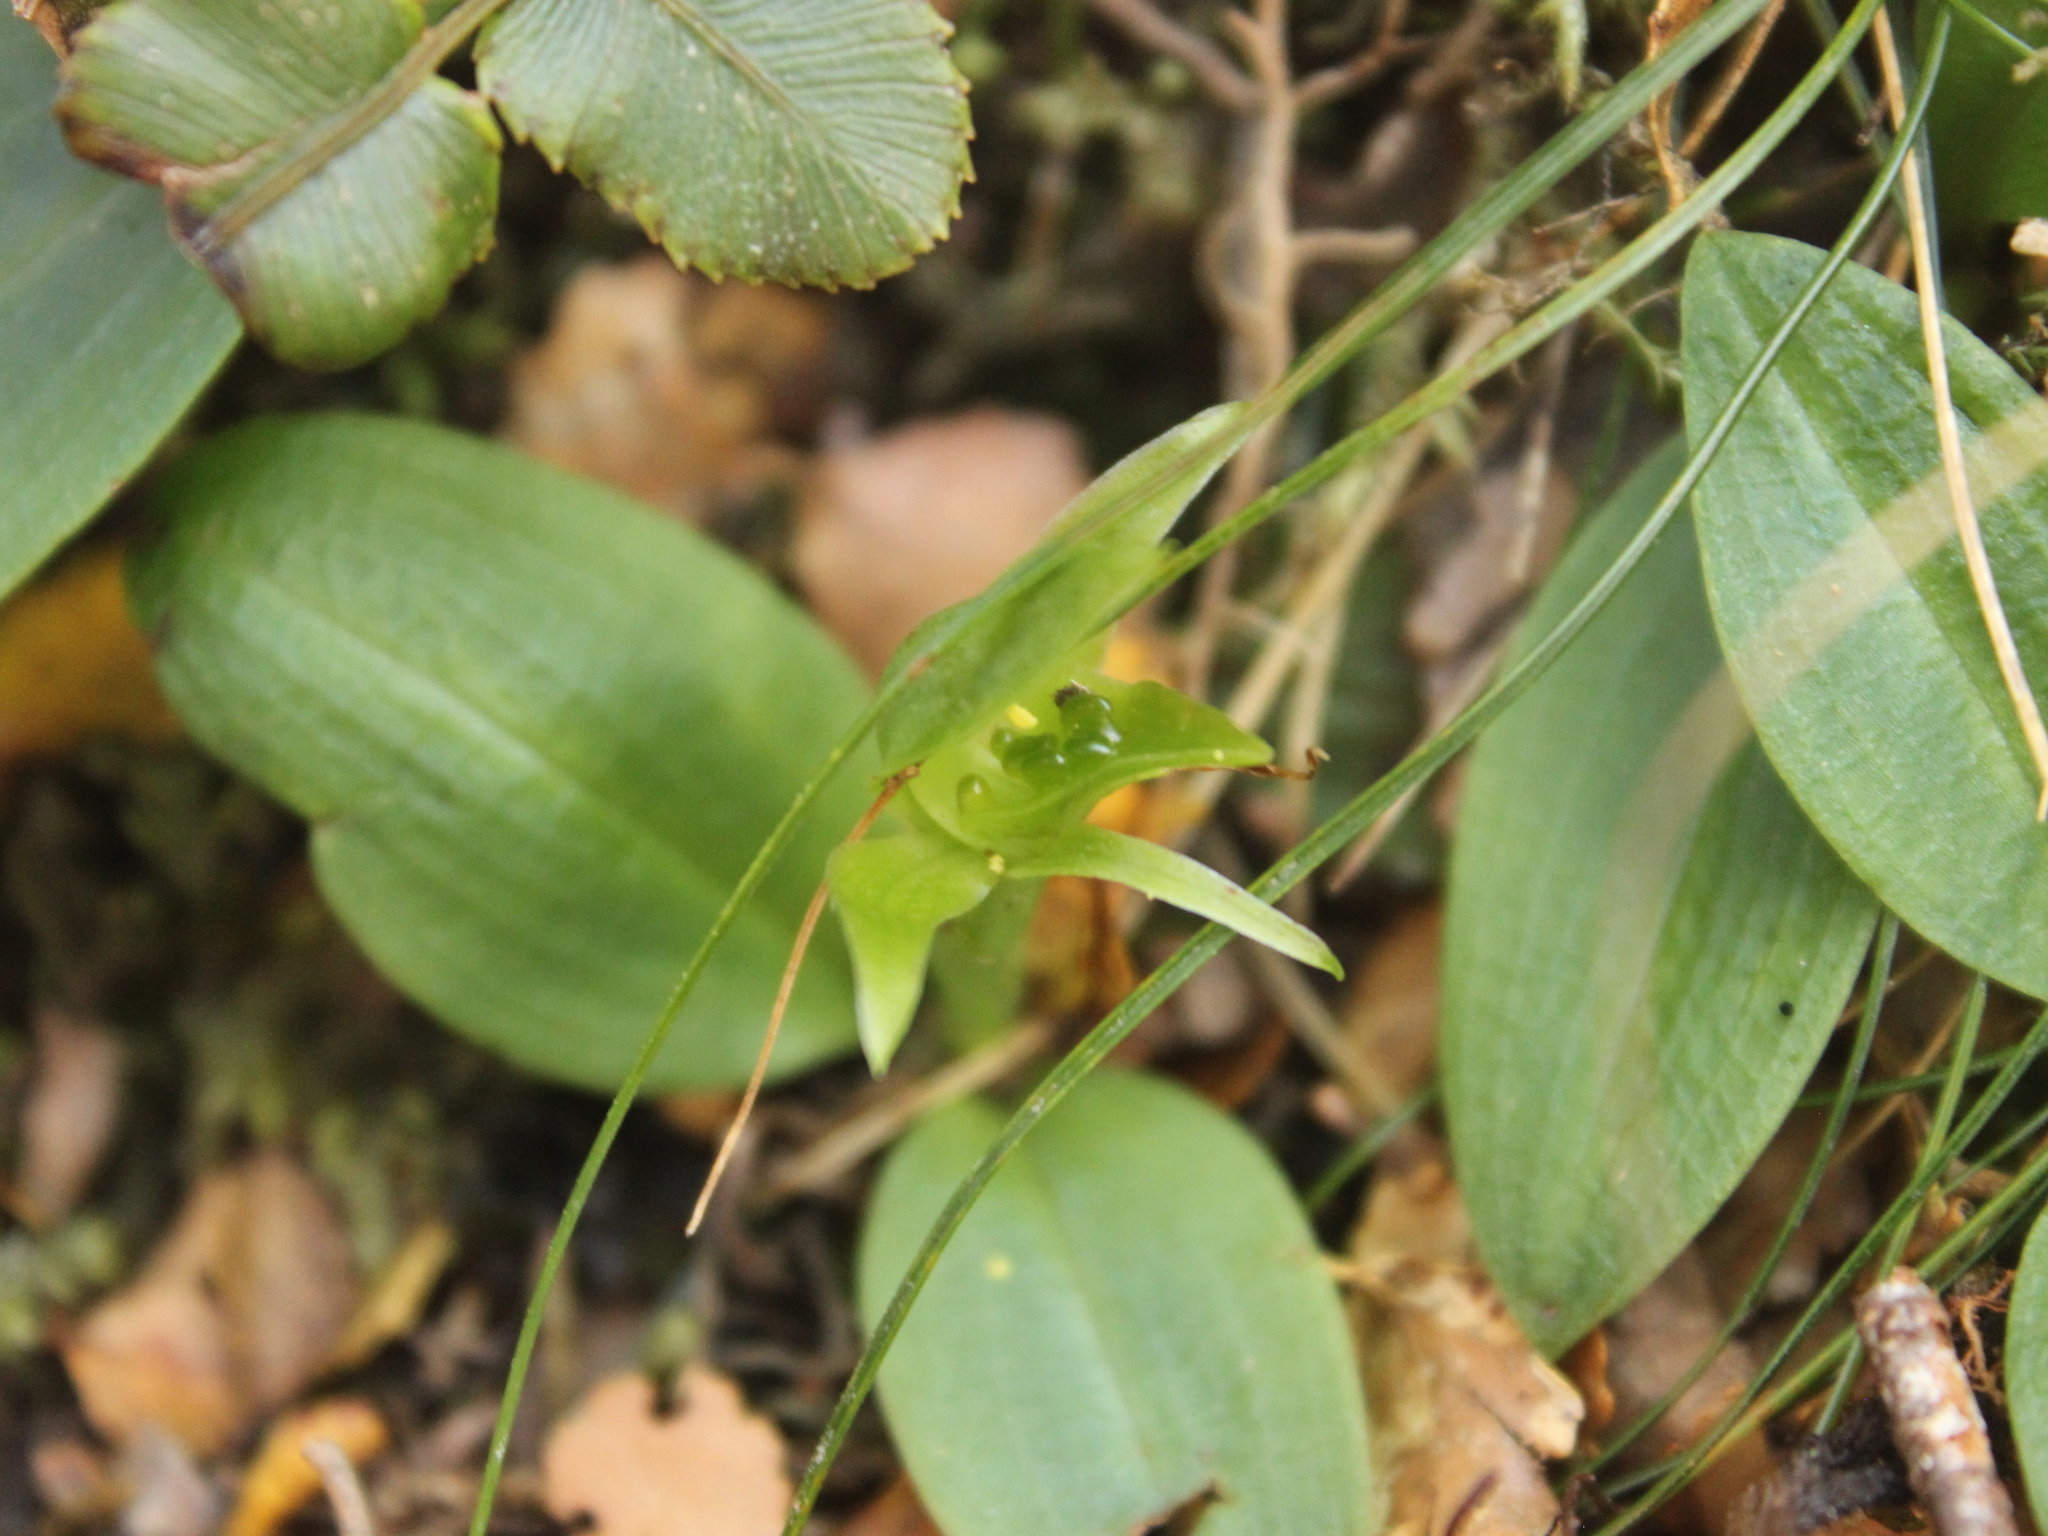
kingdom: Plantae
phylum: Tracheophyta
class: Liliopsida
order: Asparagales
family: Orchidaceae
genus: Chiloglottis
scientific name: Chiloglottis cornuta
